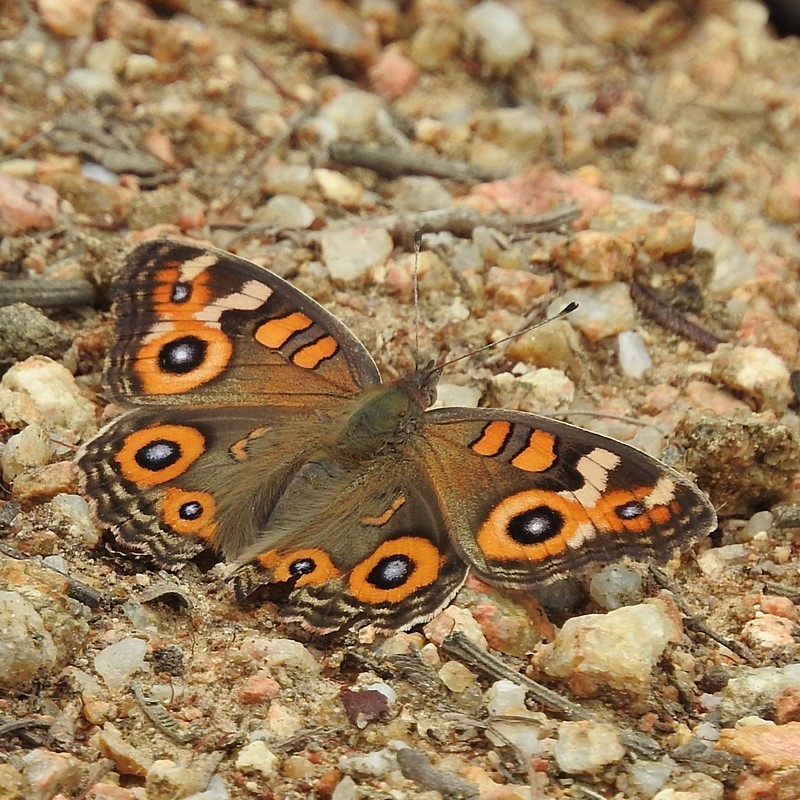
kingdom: Animalia
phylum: Arthropoda
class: Insecta
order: Lepidoptera
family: Nymphalidae
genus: Junonia
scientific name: Junonia villida
